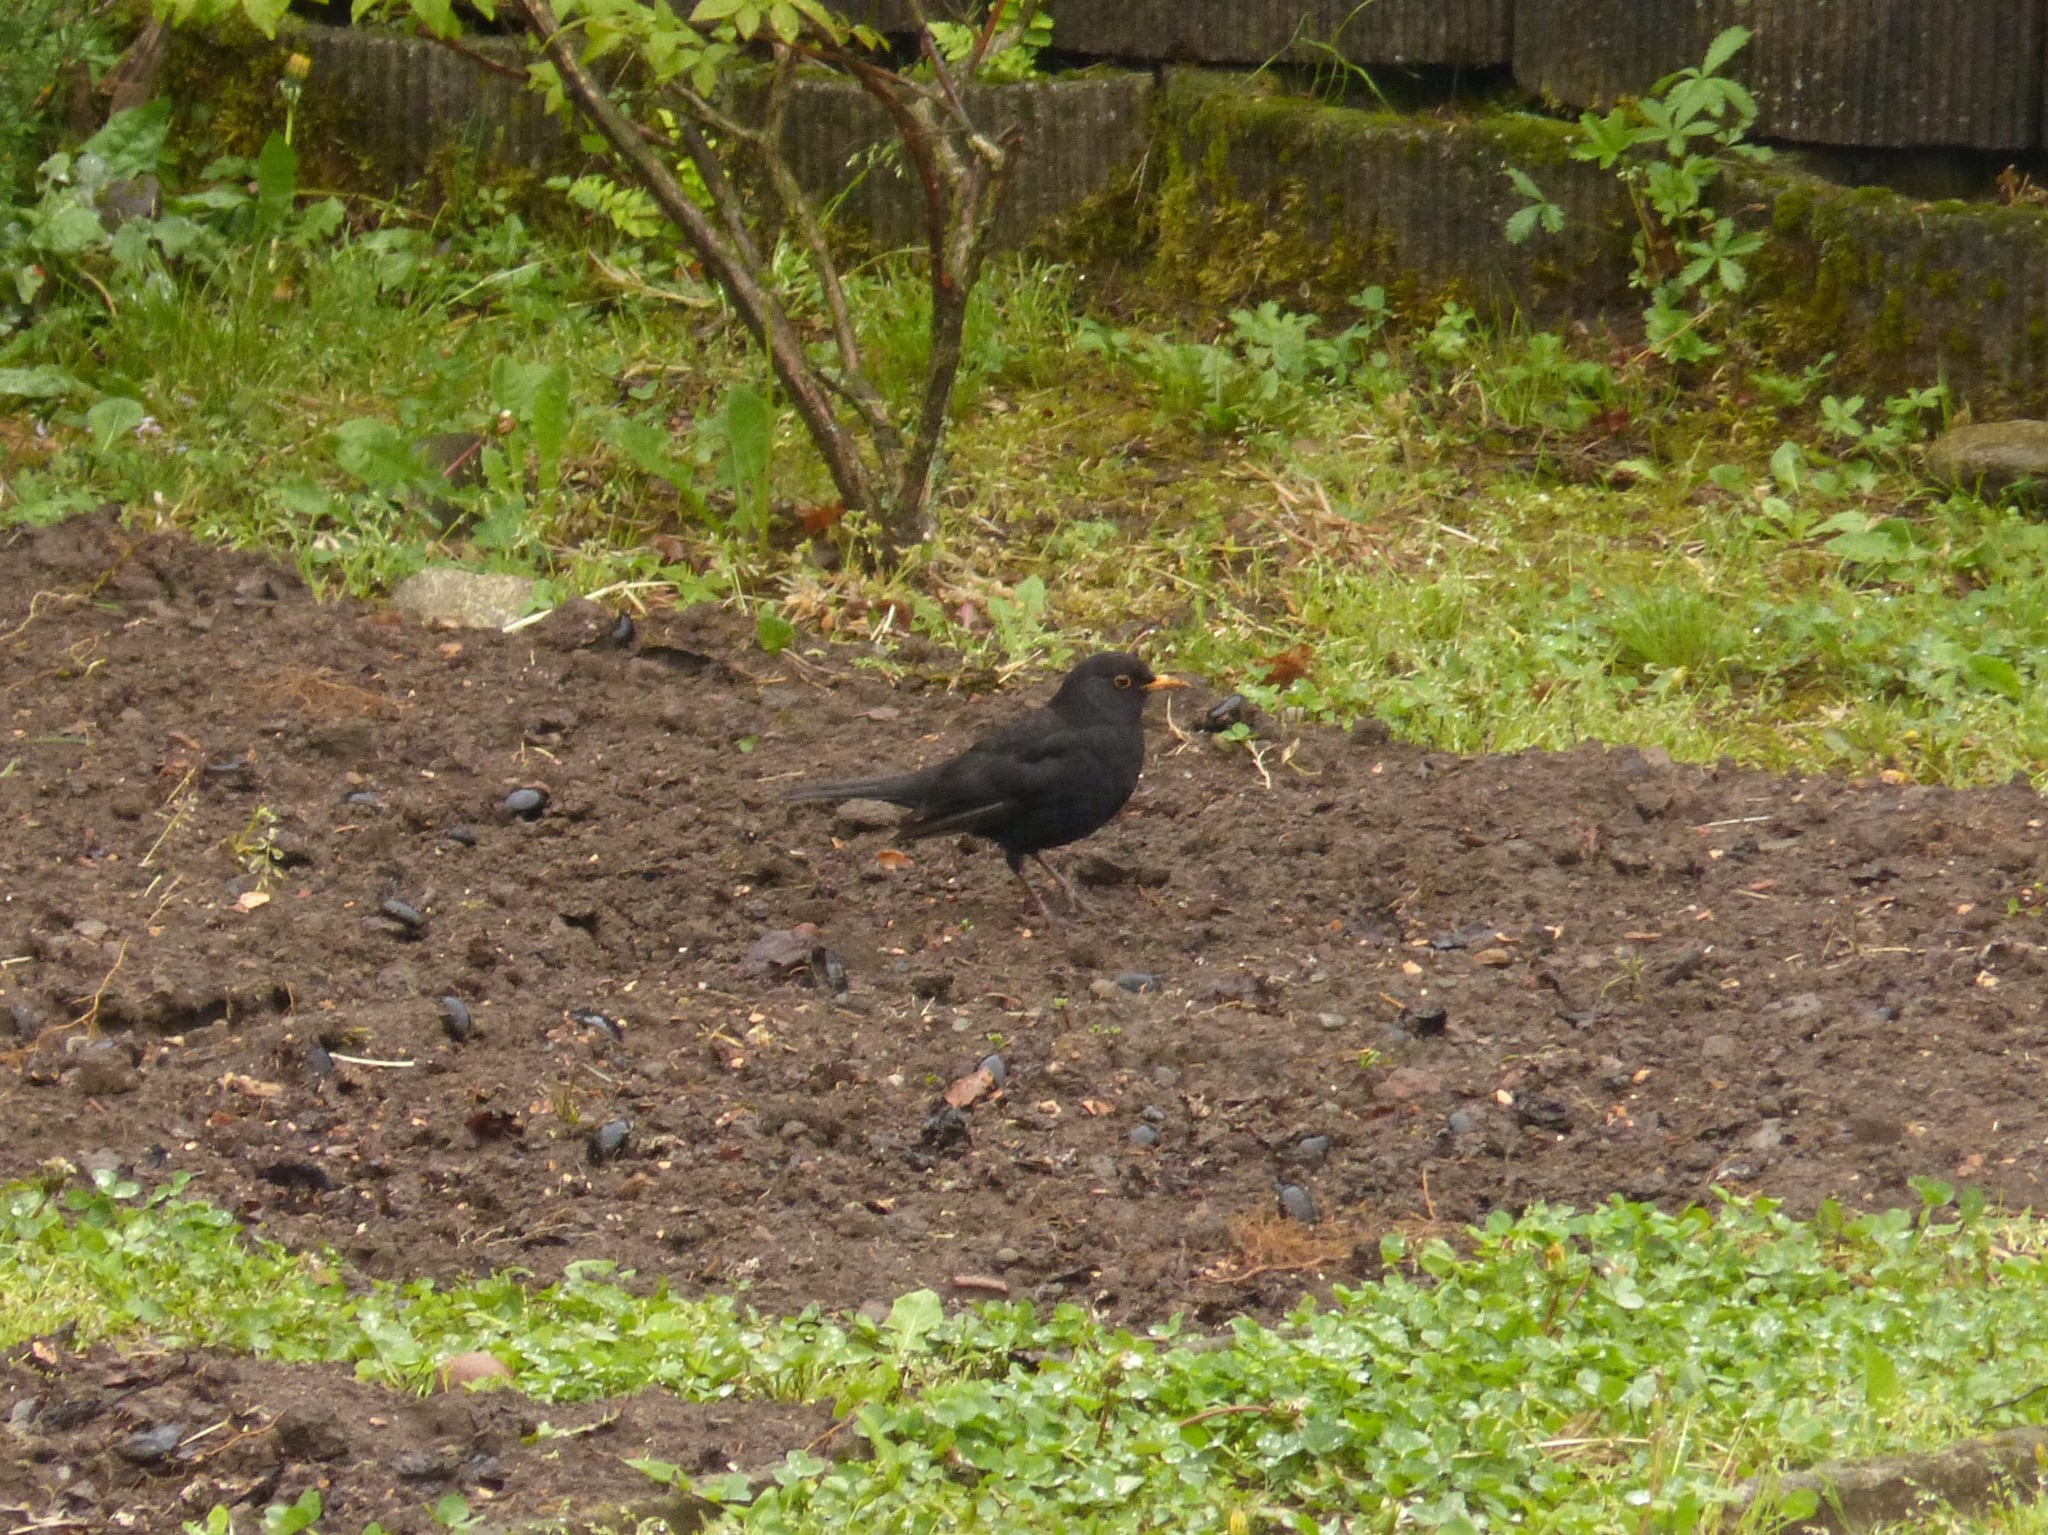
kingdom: Animalia
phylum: Chordata
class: Aves
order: Passeriformes
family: Turdidae
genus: Turdus
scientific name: Turdus merula
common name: Common blackbird
